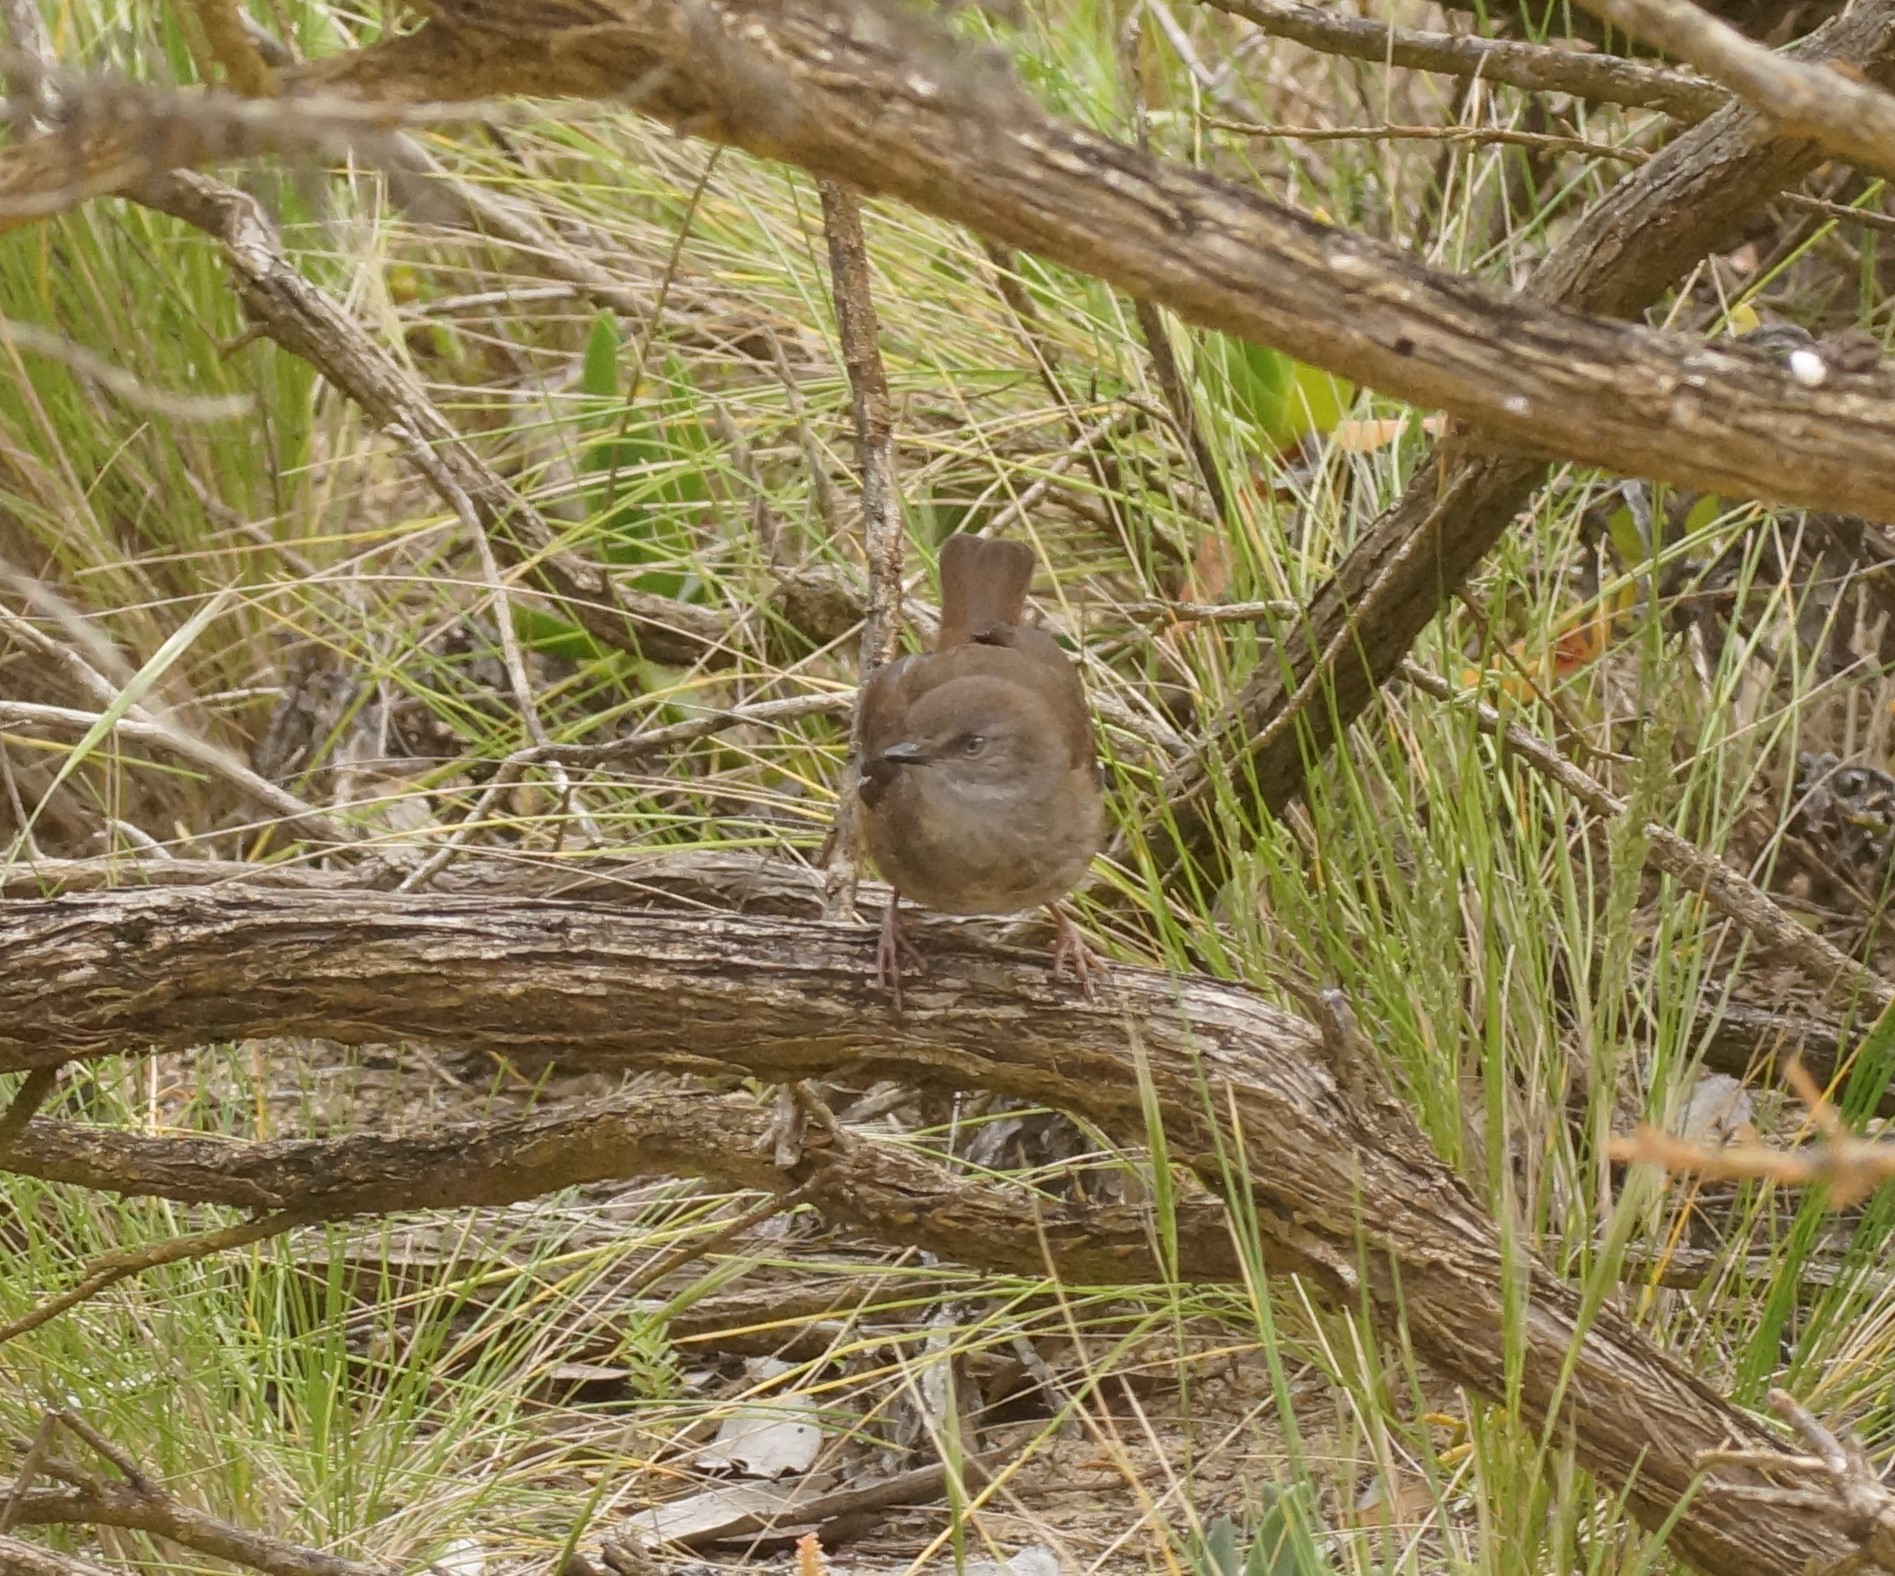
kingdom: Animalia
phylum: Chordata
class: Aves
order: Passeriformes
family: Acanthizidae
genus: Sericornis
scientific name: Sericornis frontalis
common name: White-browed scrubwren
